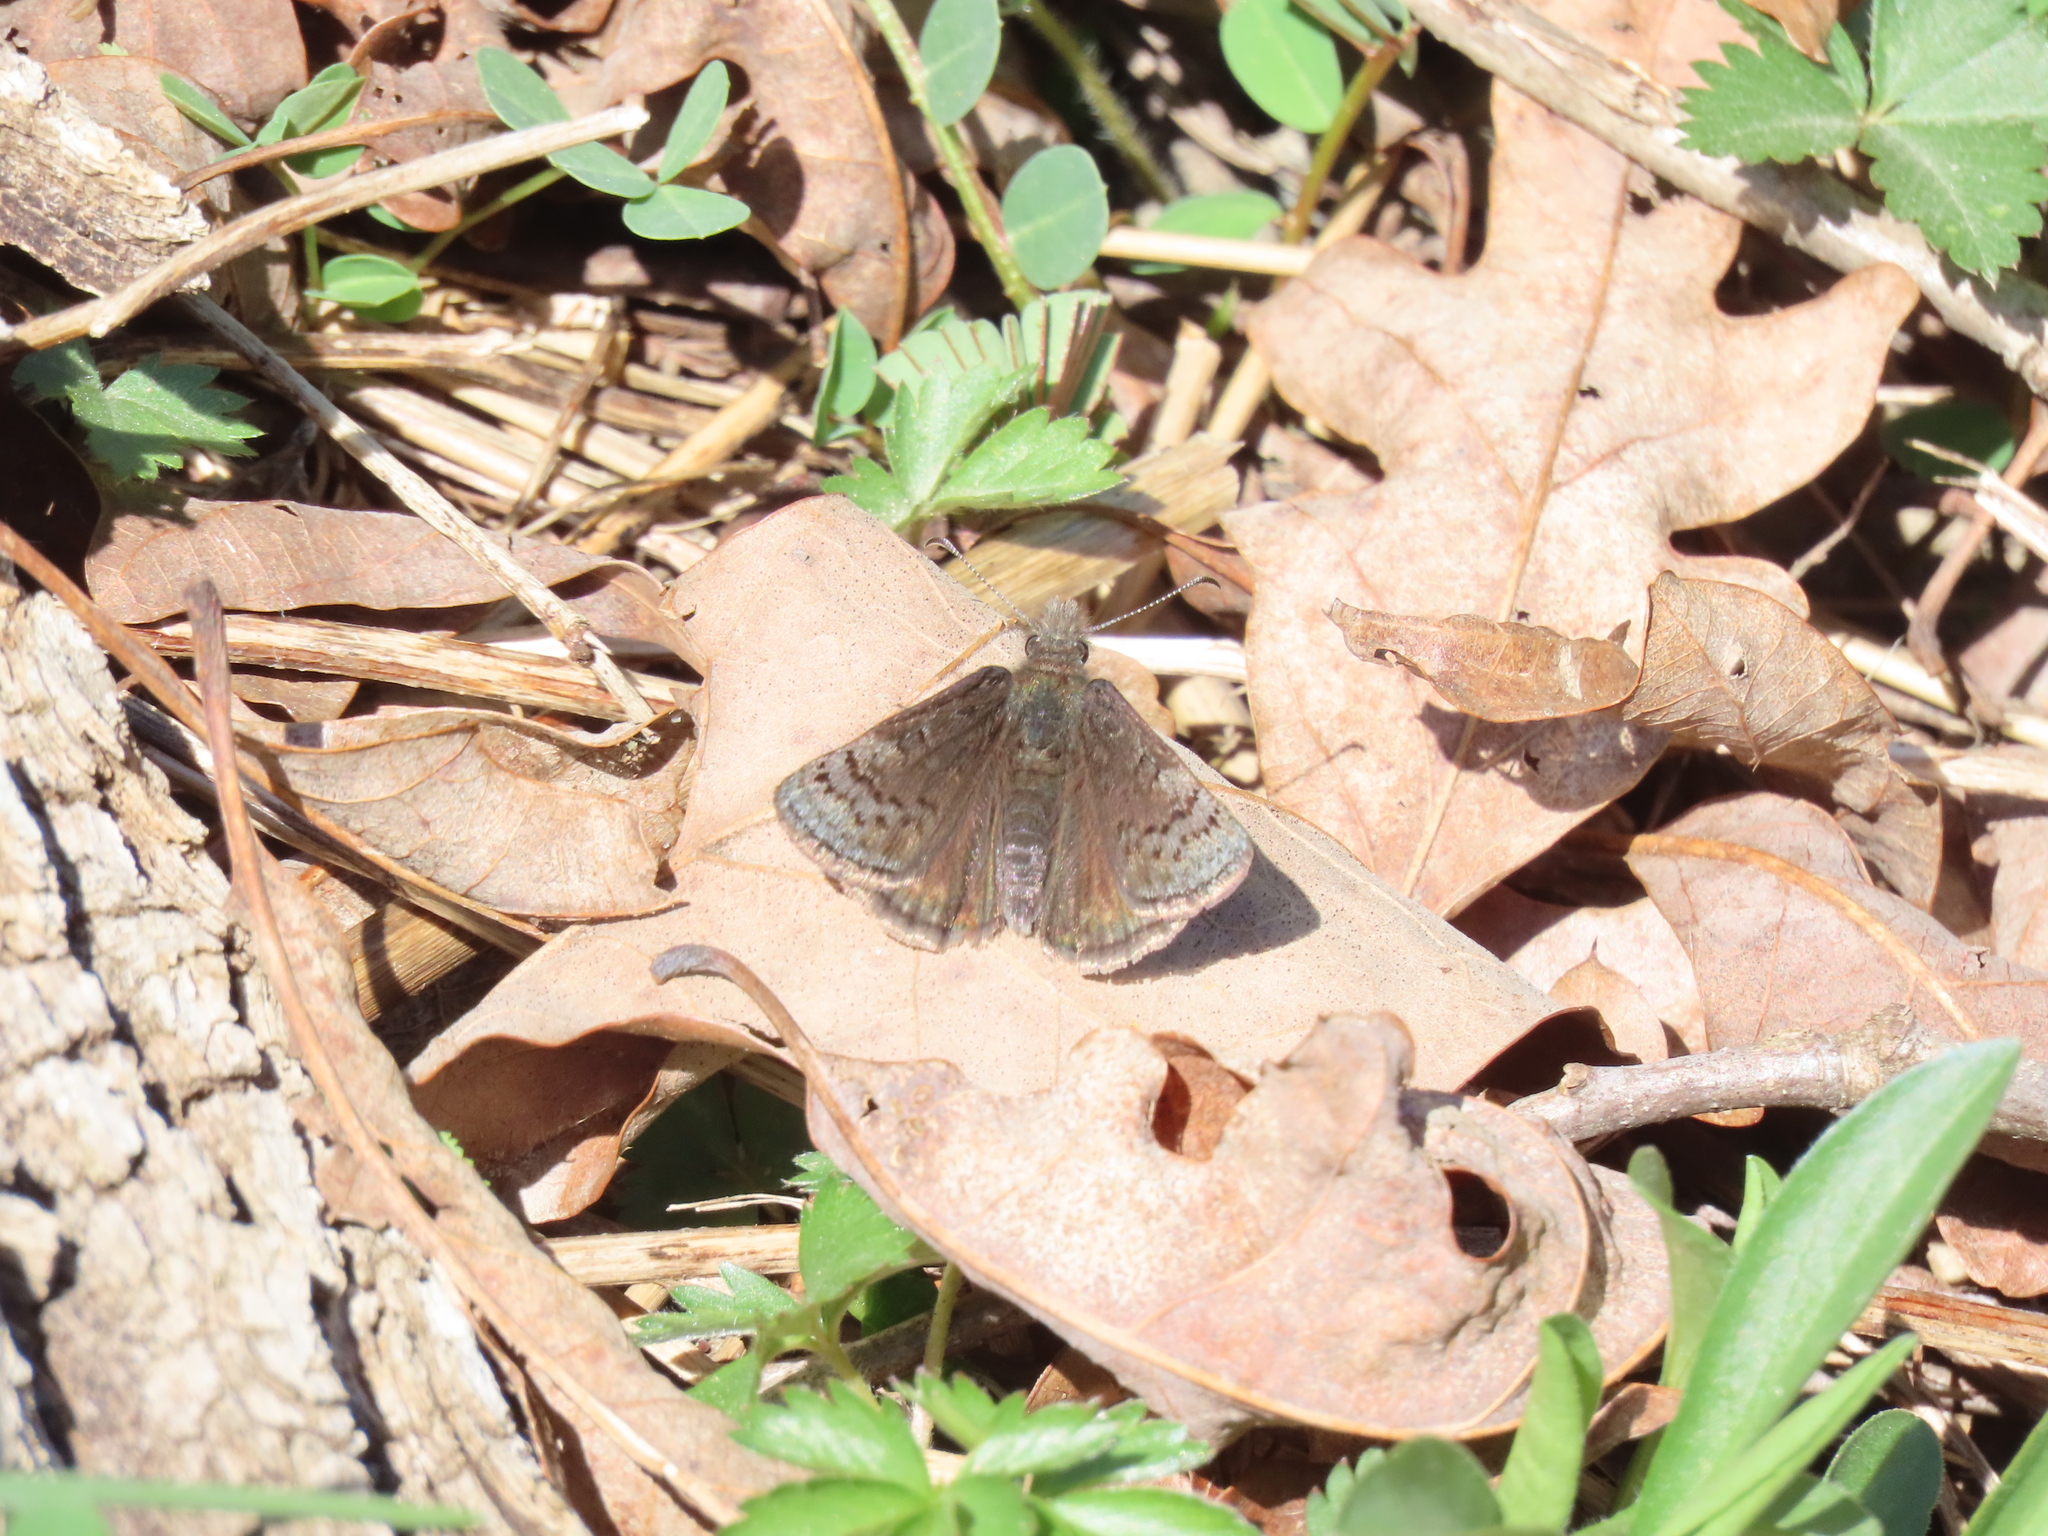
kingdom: Animalia
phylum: Arthropoda
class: Insecta
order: Lepidoptera
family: Hesperiidae
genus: Erynnis
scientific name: Erynnis icelus
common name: Dreamy duskywing
